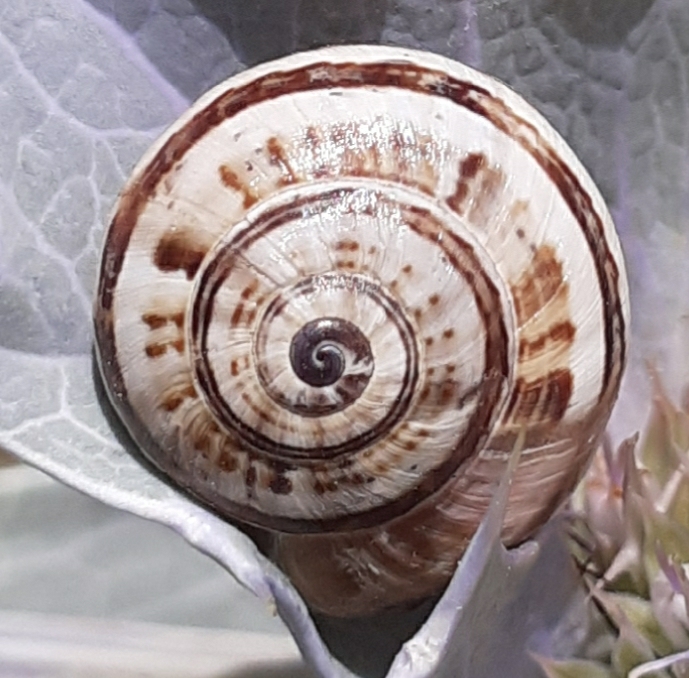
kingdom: Animalia
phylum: Mollusca
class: Gastropoda
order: Stylommatophora
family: Helicidae
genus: Theba
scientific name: Theba pisana
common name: White snail
